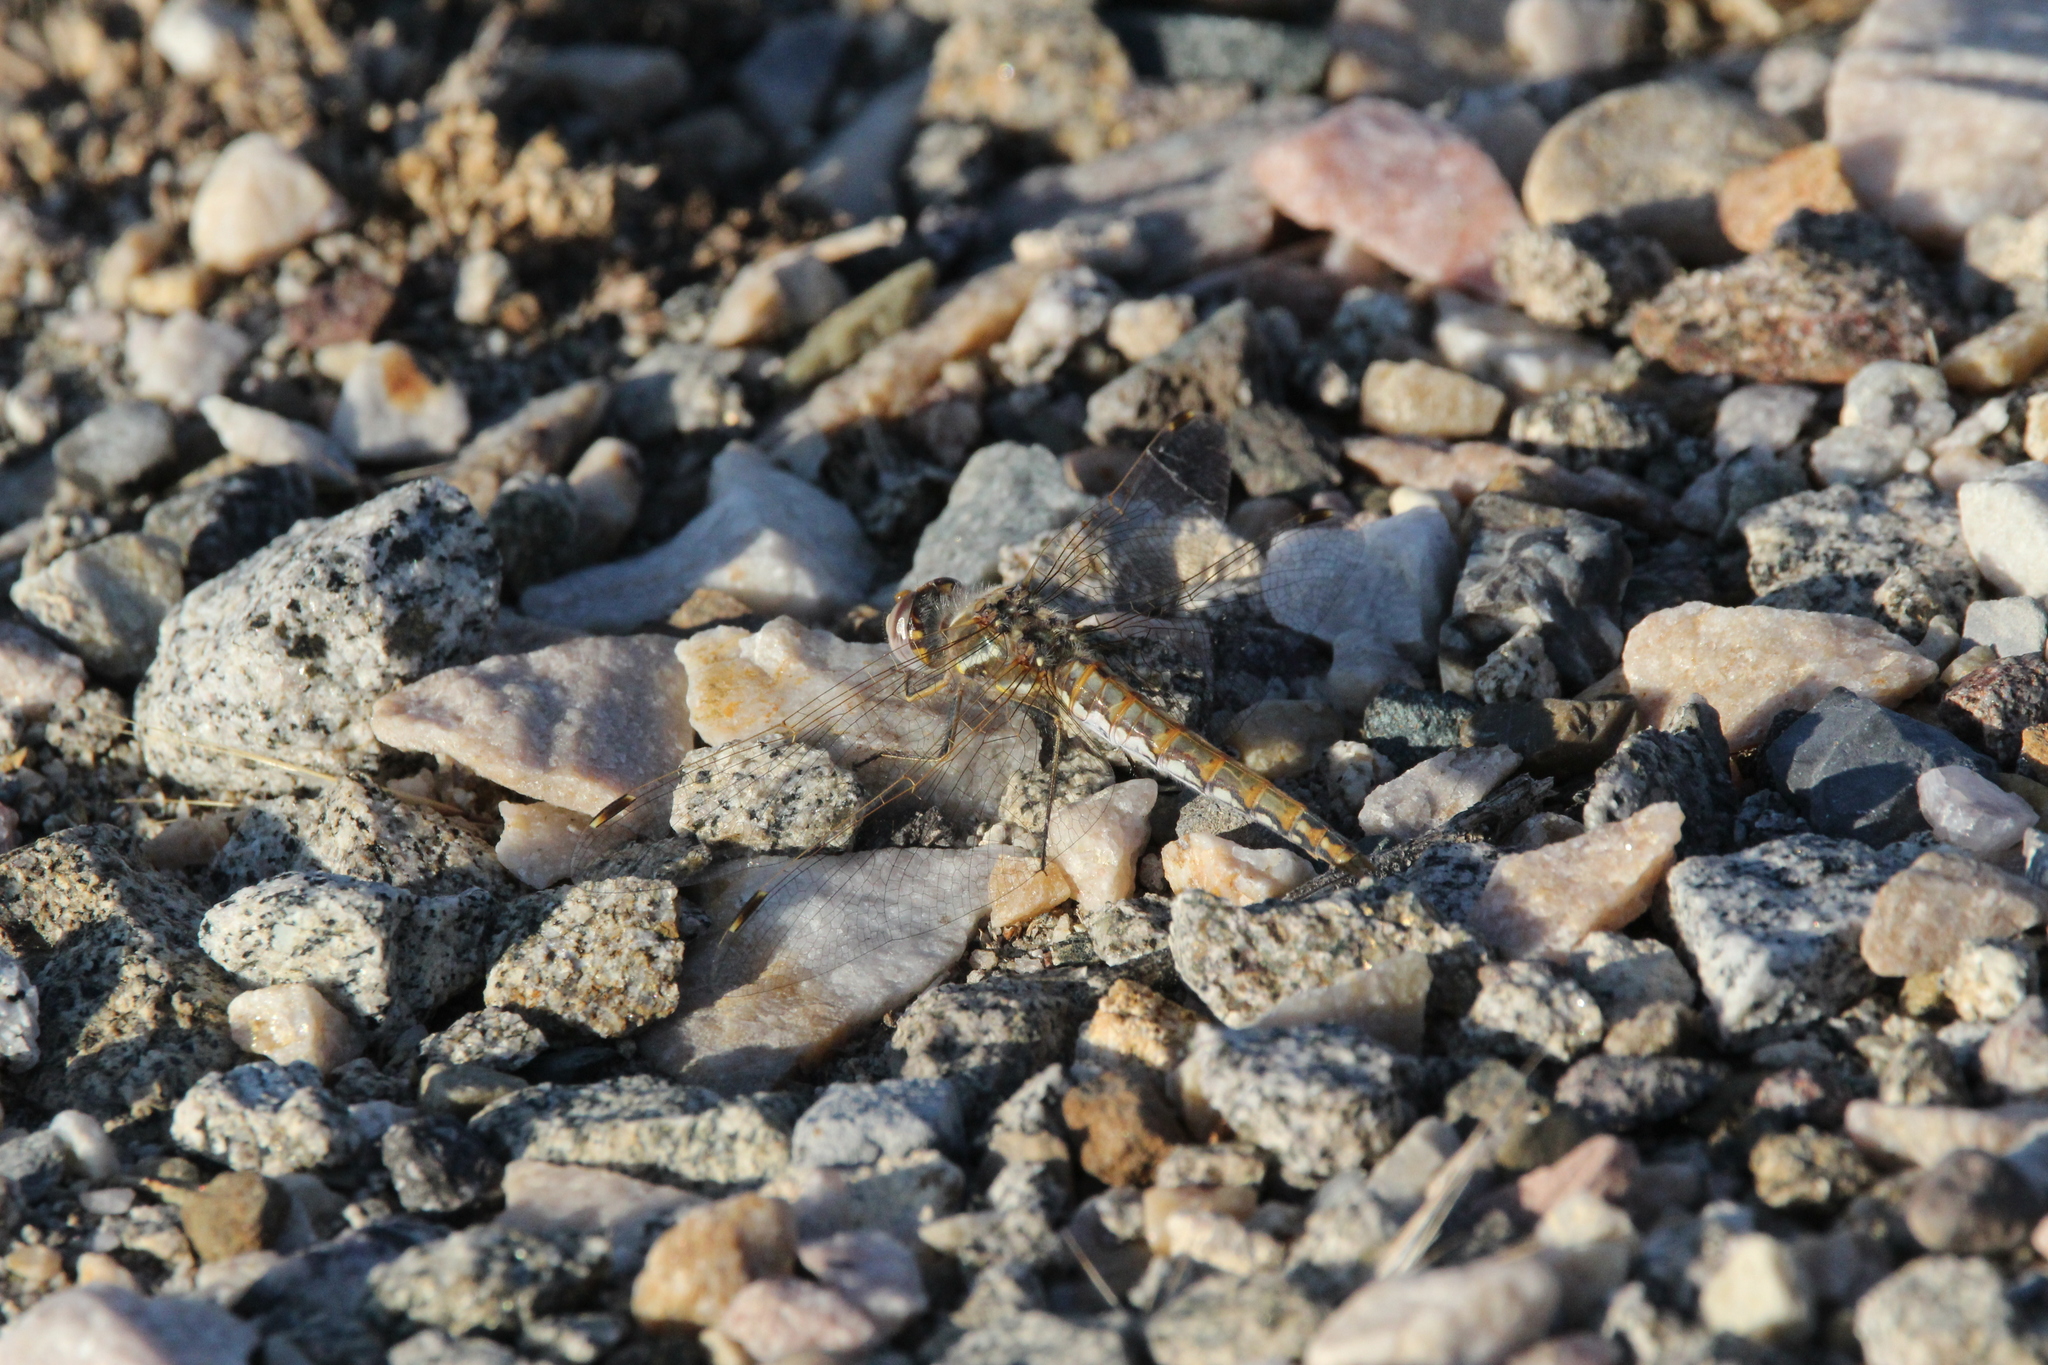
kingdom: Animalia
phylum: Arthropoda
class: Insecta
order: Odonata
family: Libellulidae
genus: Sympetrum
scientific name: Sympetrum corruptum
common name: Variegated meadowhawk
